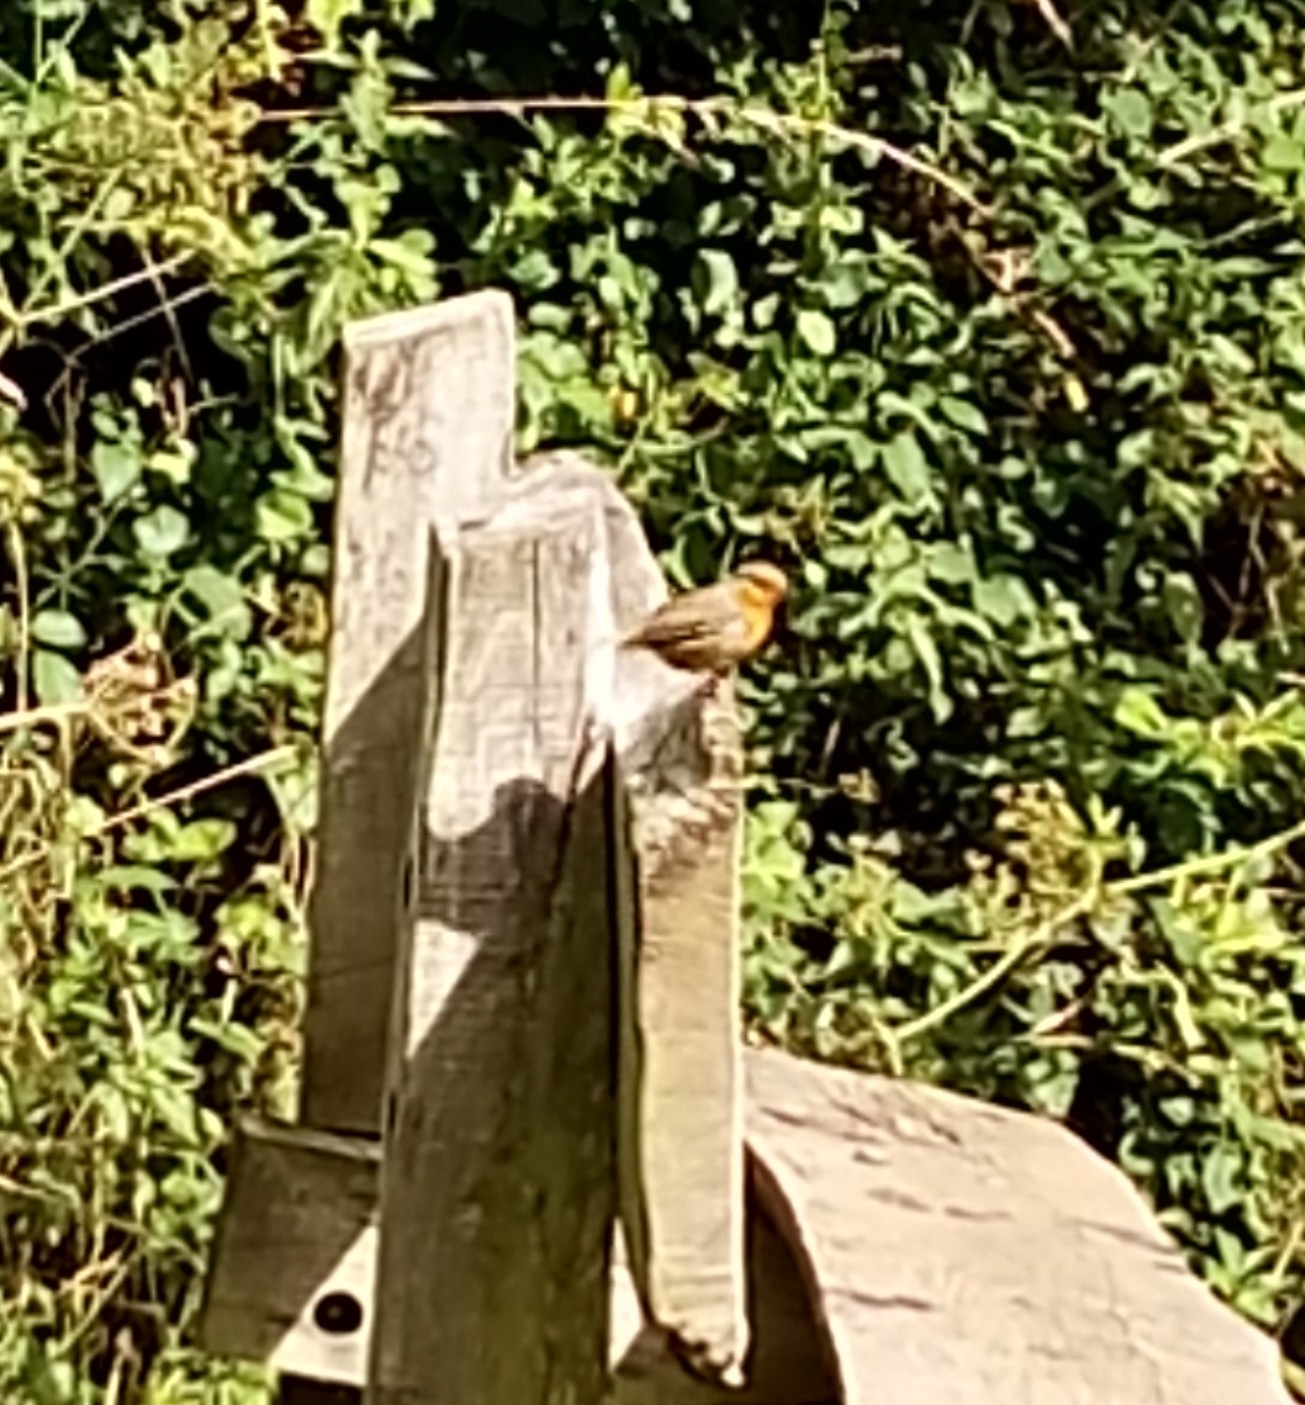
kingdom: Animalia
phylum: Chordata
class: Aves
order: Passeriformes
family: Muscicapidae
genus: Erithacus
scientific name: Erithacus rubecula
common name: European robin
